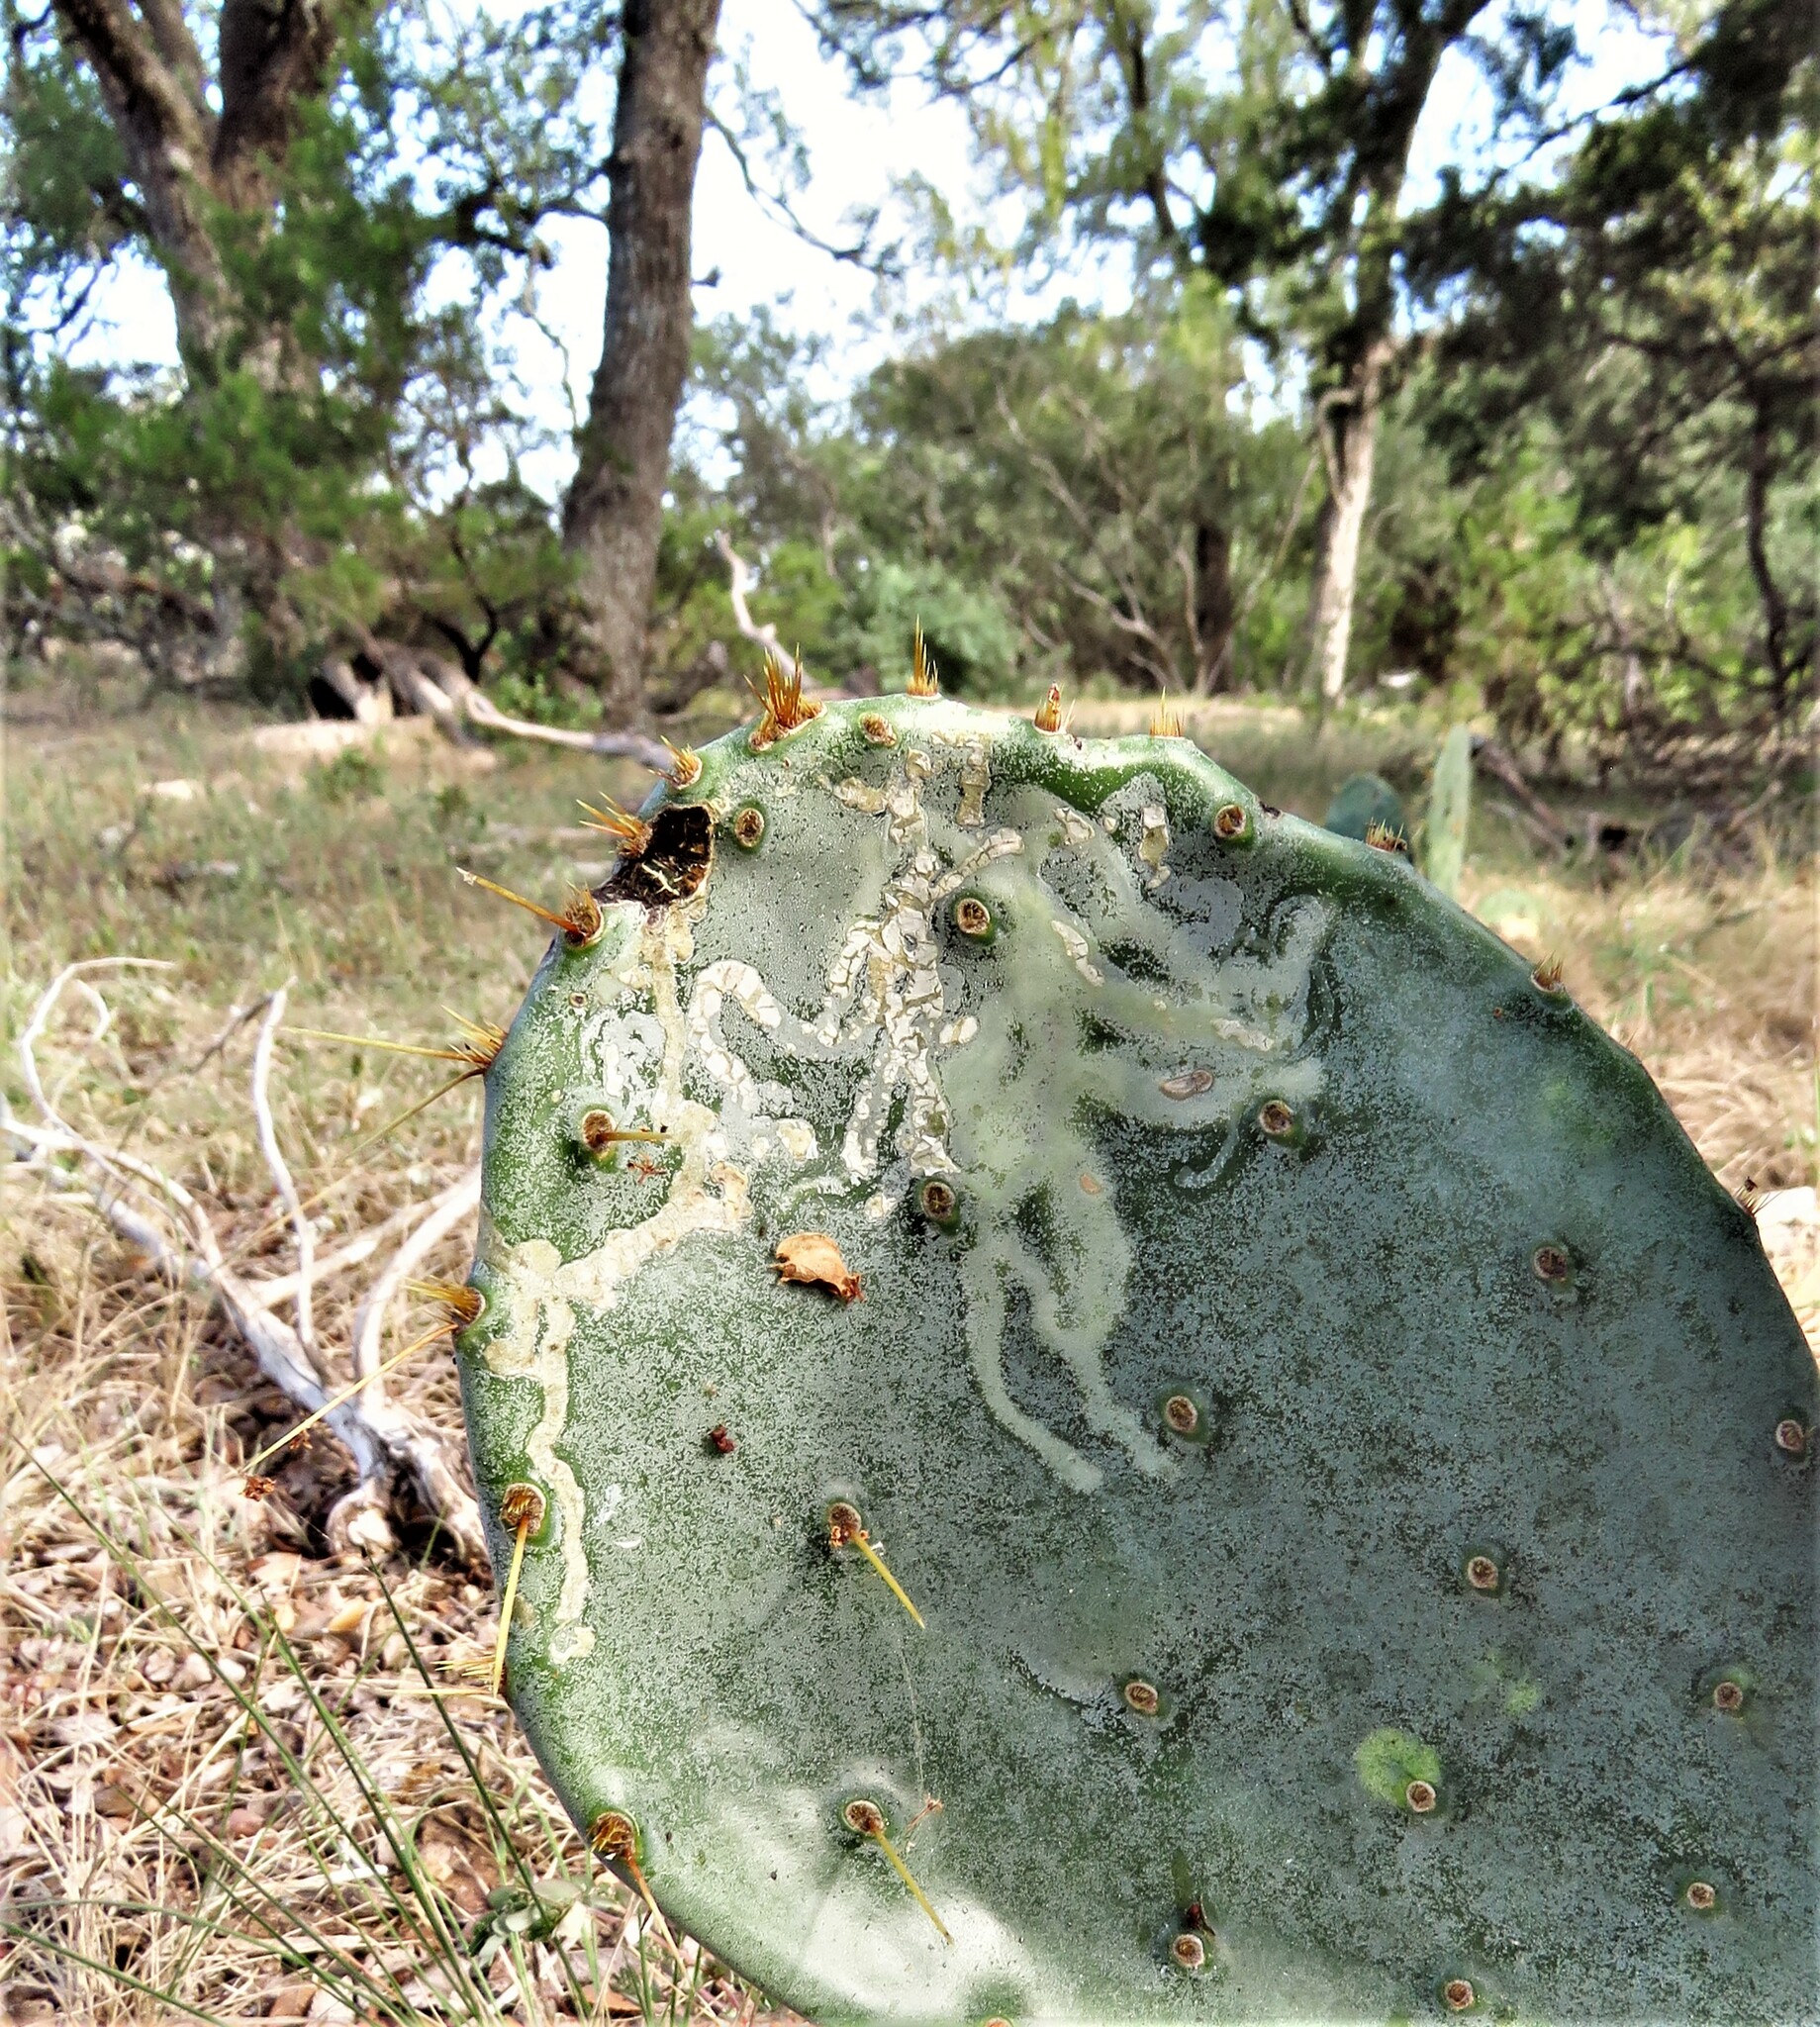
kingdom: Animalia
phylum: Arthropoda
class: Insecta
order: Lepidoptera
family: Gracillariidae
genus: Marmara
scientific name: Marmara opuntiella
